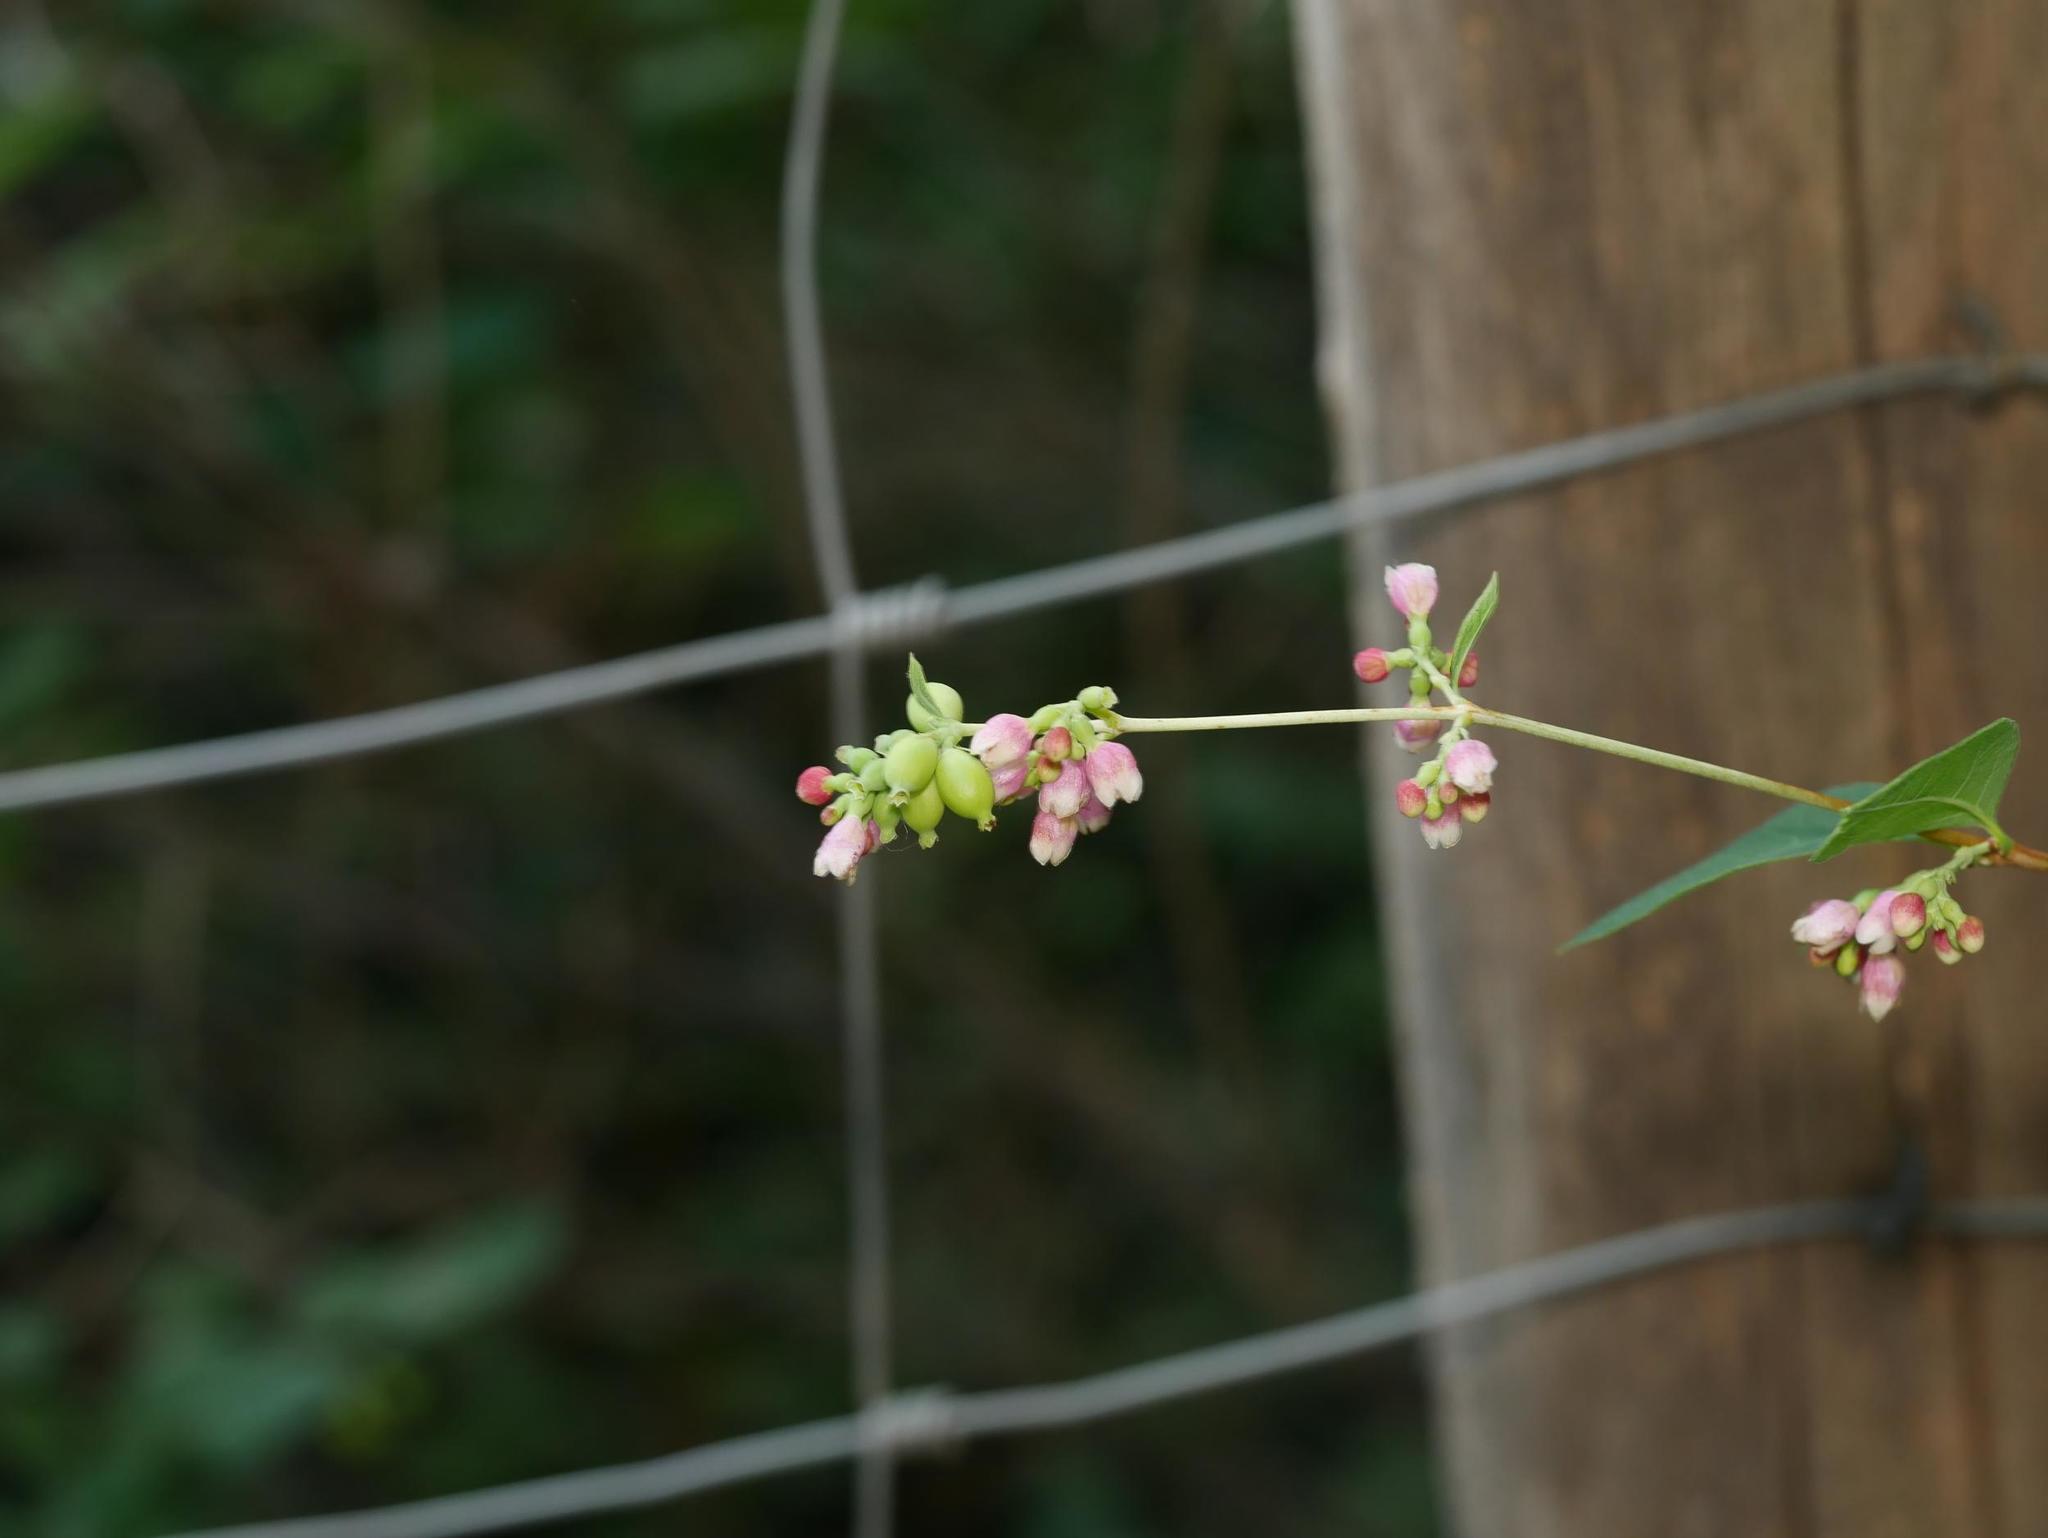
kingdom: Plantae
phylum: Tracheophyta
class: Magnoliopsida
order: Dipsacales
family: Caprifoliaceae
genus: Symphoricarpos
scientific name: Symphoricarpos albus
